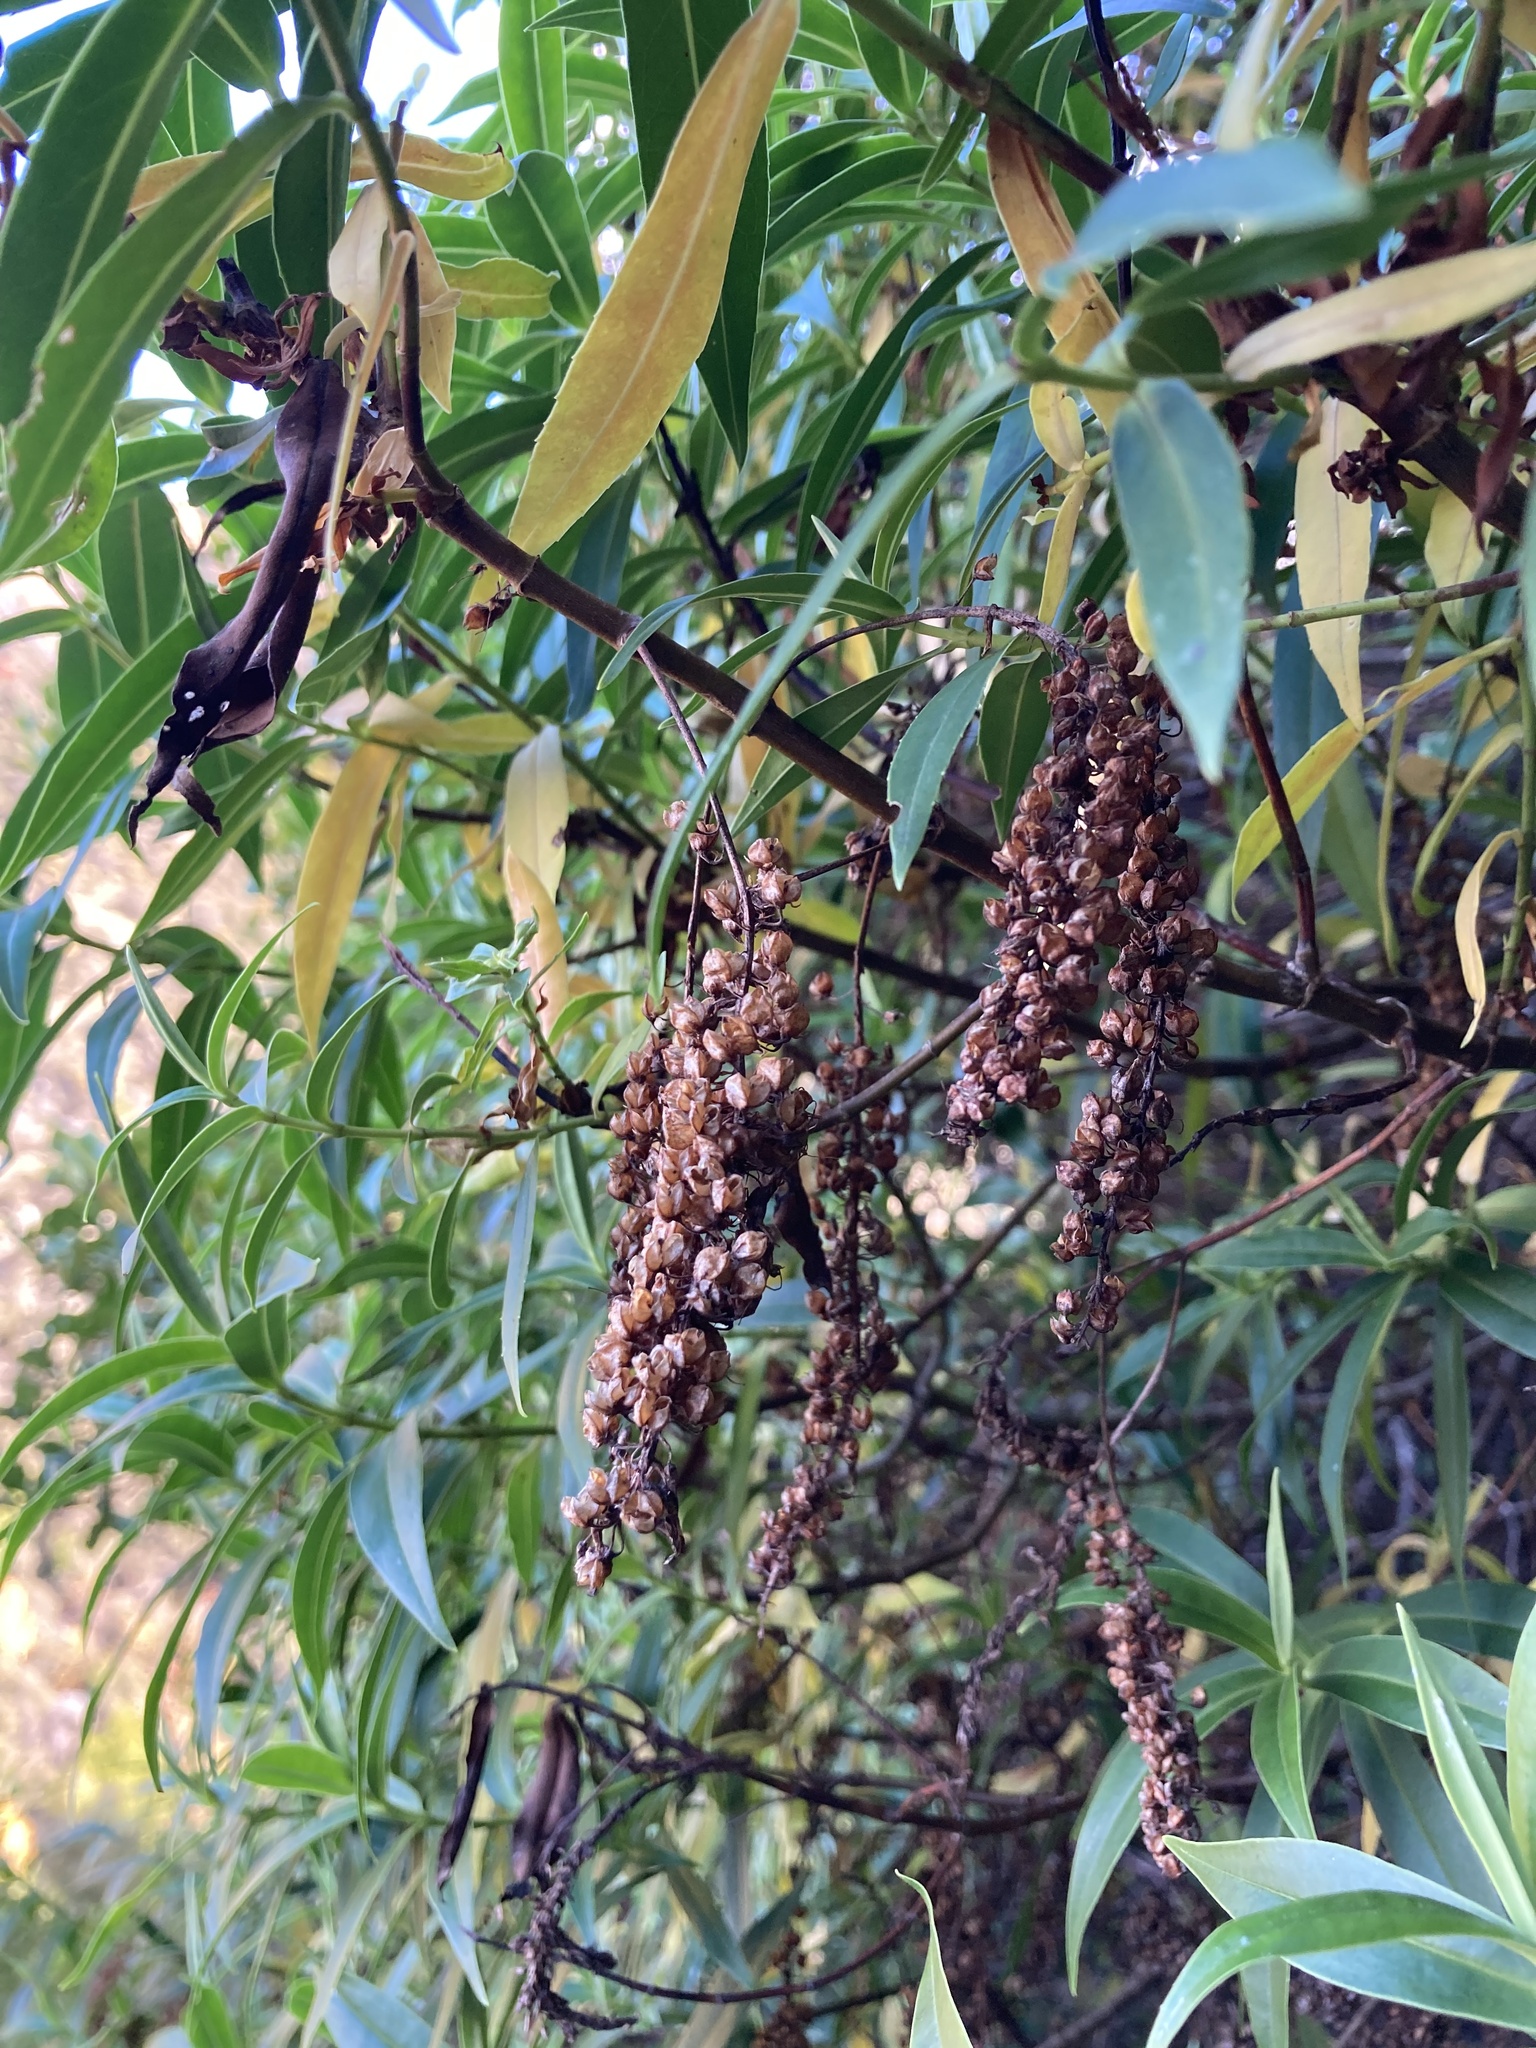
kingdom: Plantae
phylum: Tracheophyta
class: Magnoliopsida
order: Lamiales
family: Plantaginaceae
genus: Veronica
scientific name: Veronica salicifolia
